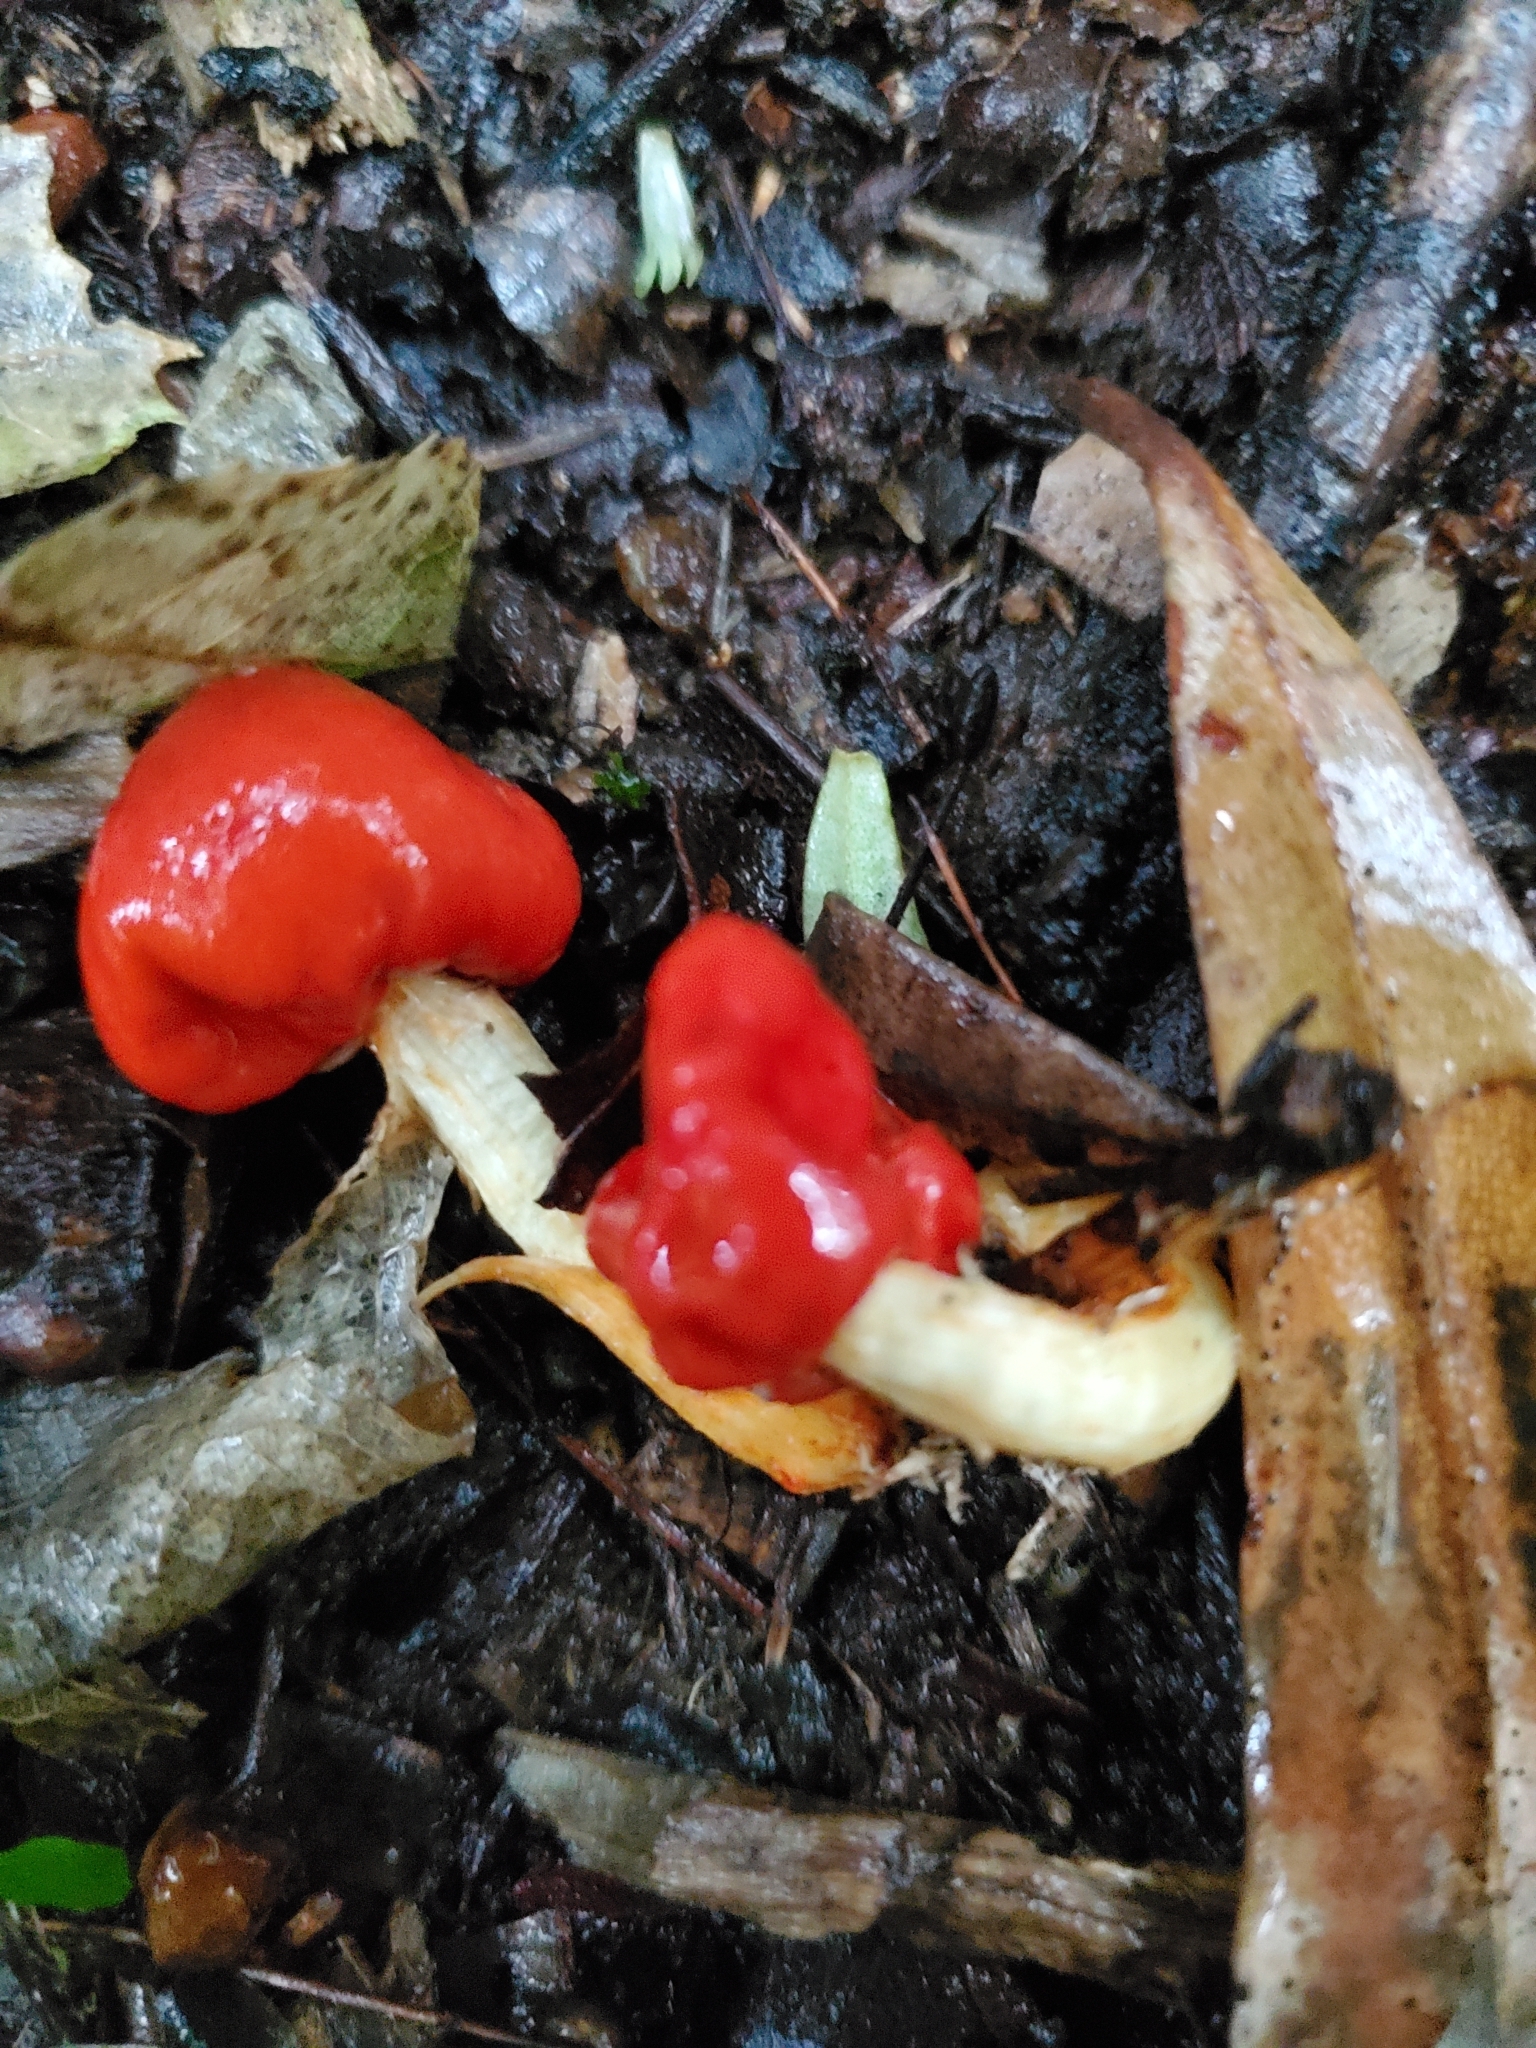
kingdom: Fungi
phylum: Basidiomycota
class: Agaricomycetes
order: Agaricales
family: Strophariaceae
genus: Leratiomyces
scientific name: Leratiomyces erythrocephalus
